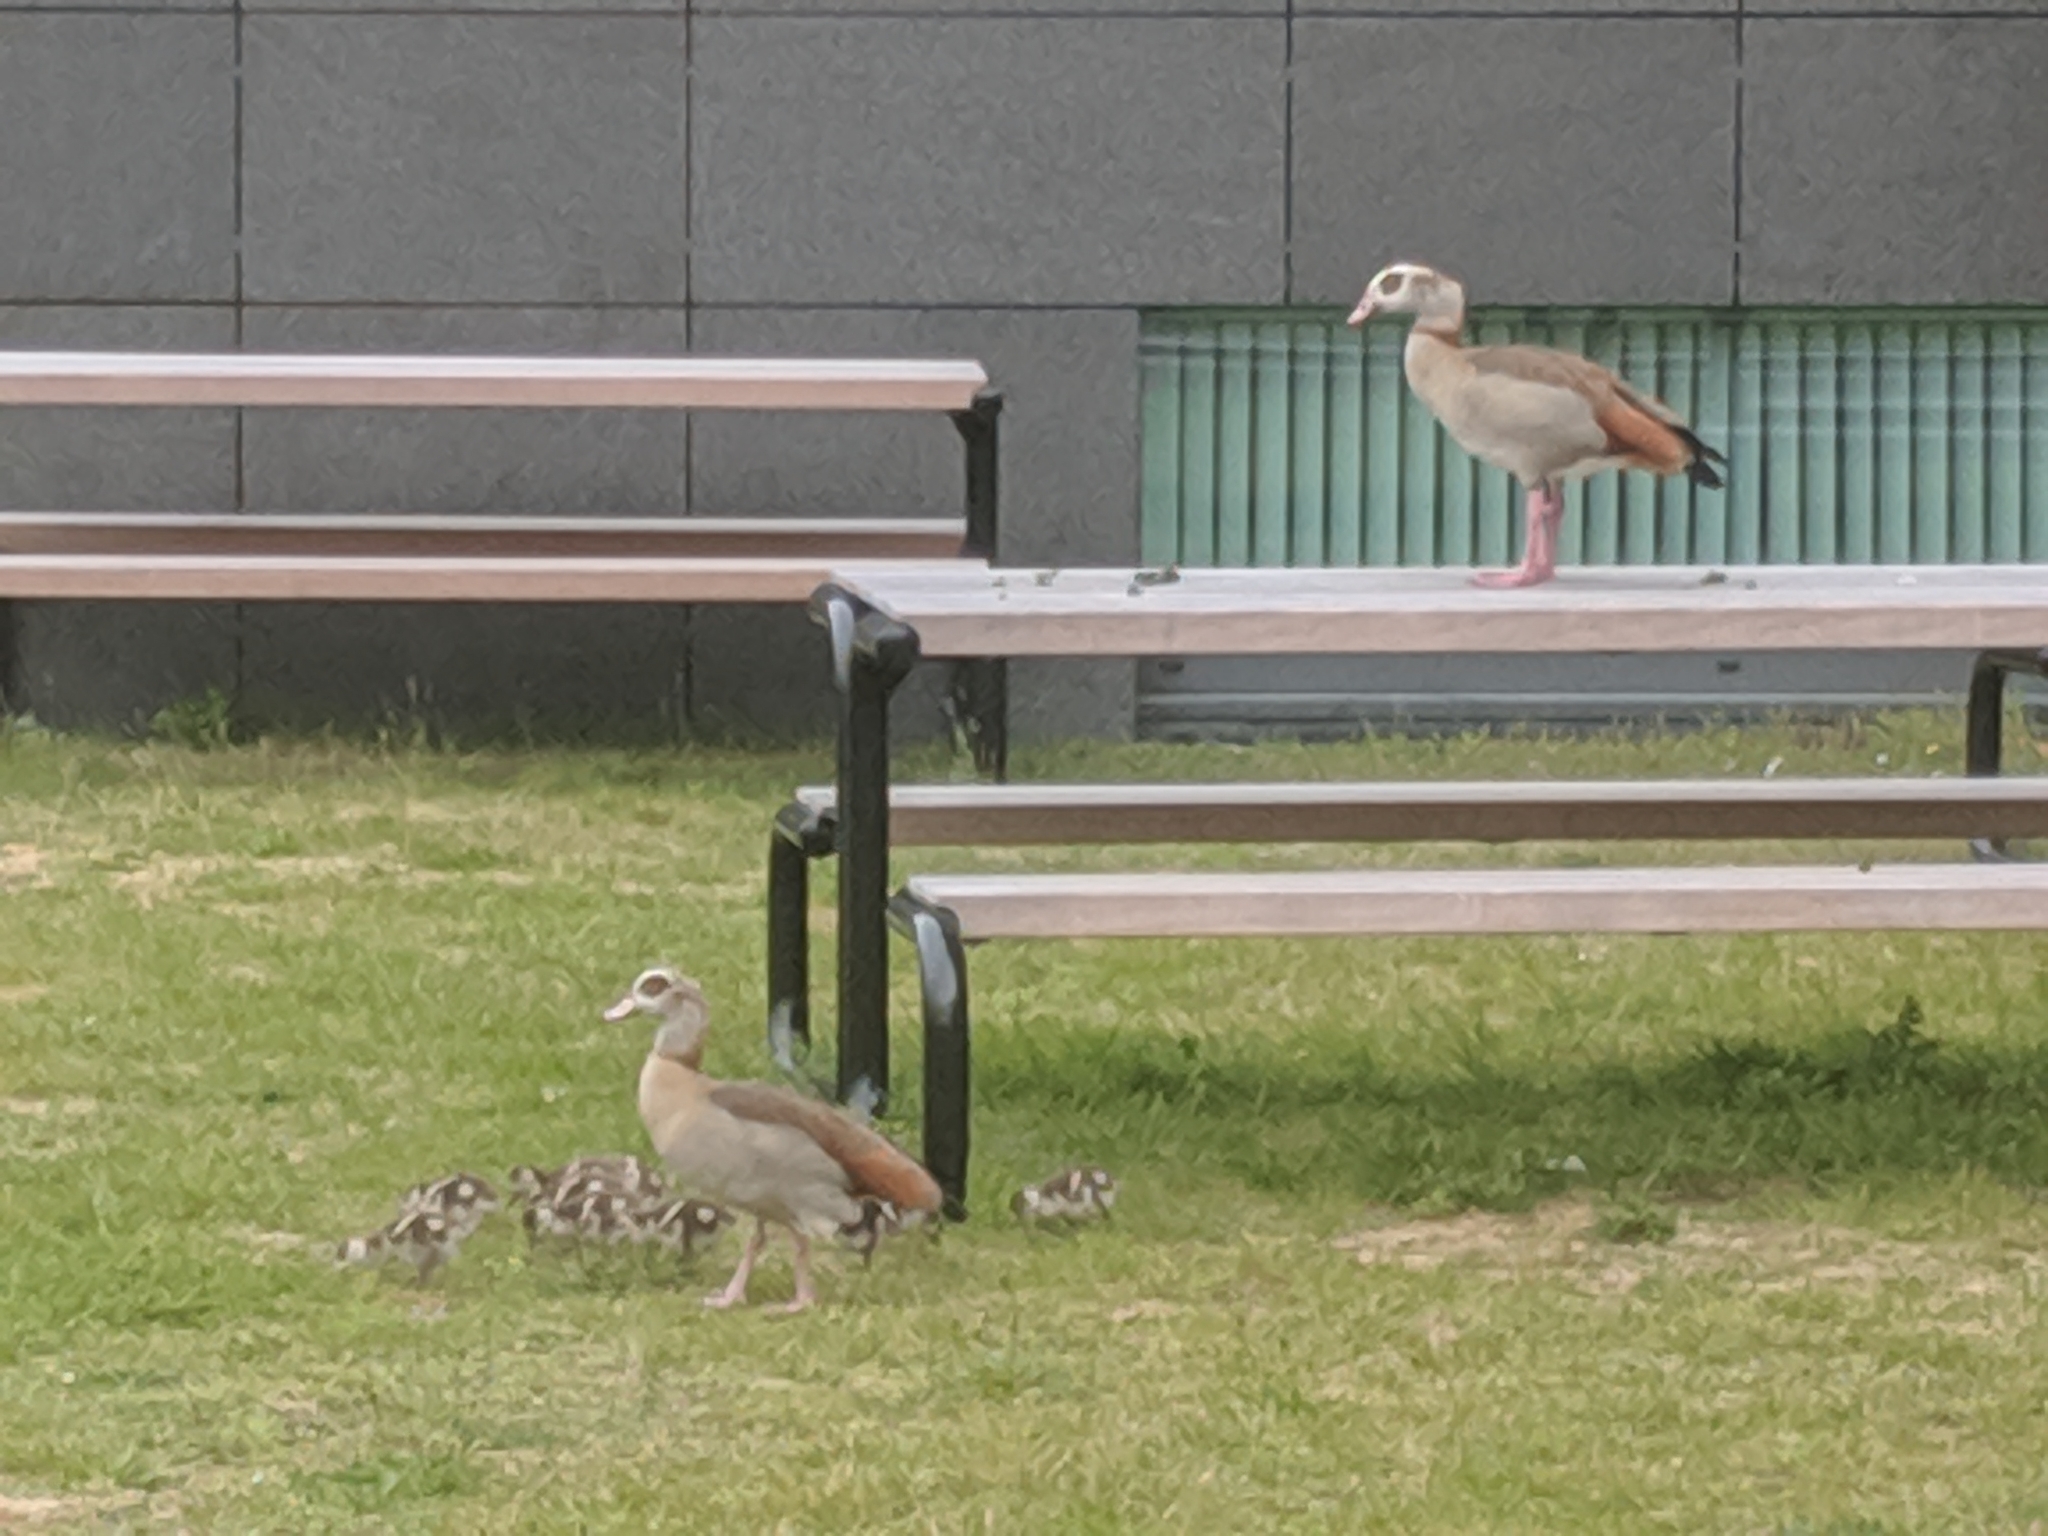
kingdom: Animalia
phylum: Chordata
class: Aves
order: Anseriformes
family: Anatidae
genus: Alopochen
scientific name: Alopochen aegyptiaca
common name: Egyptian goose
